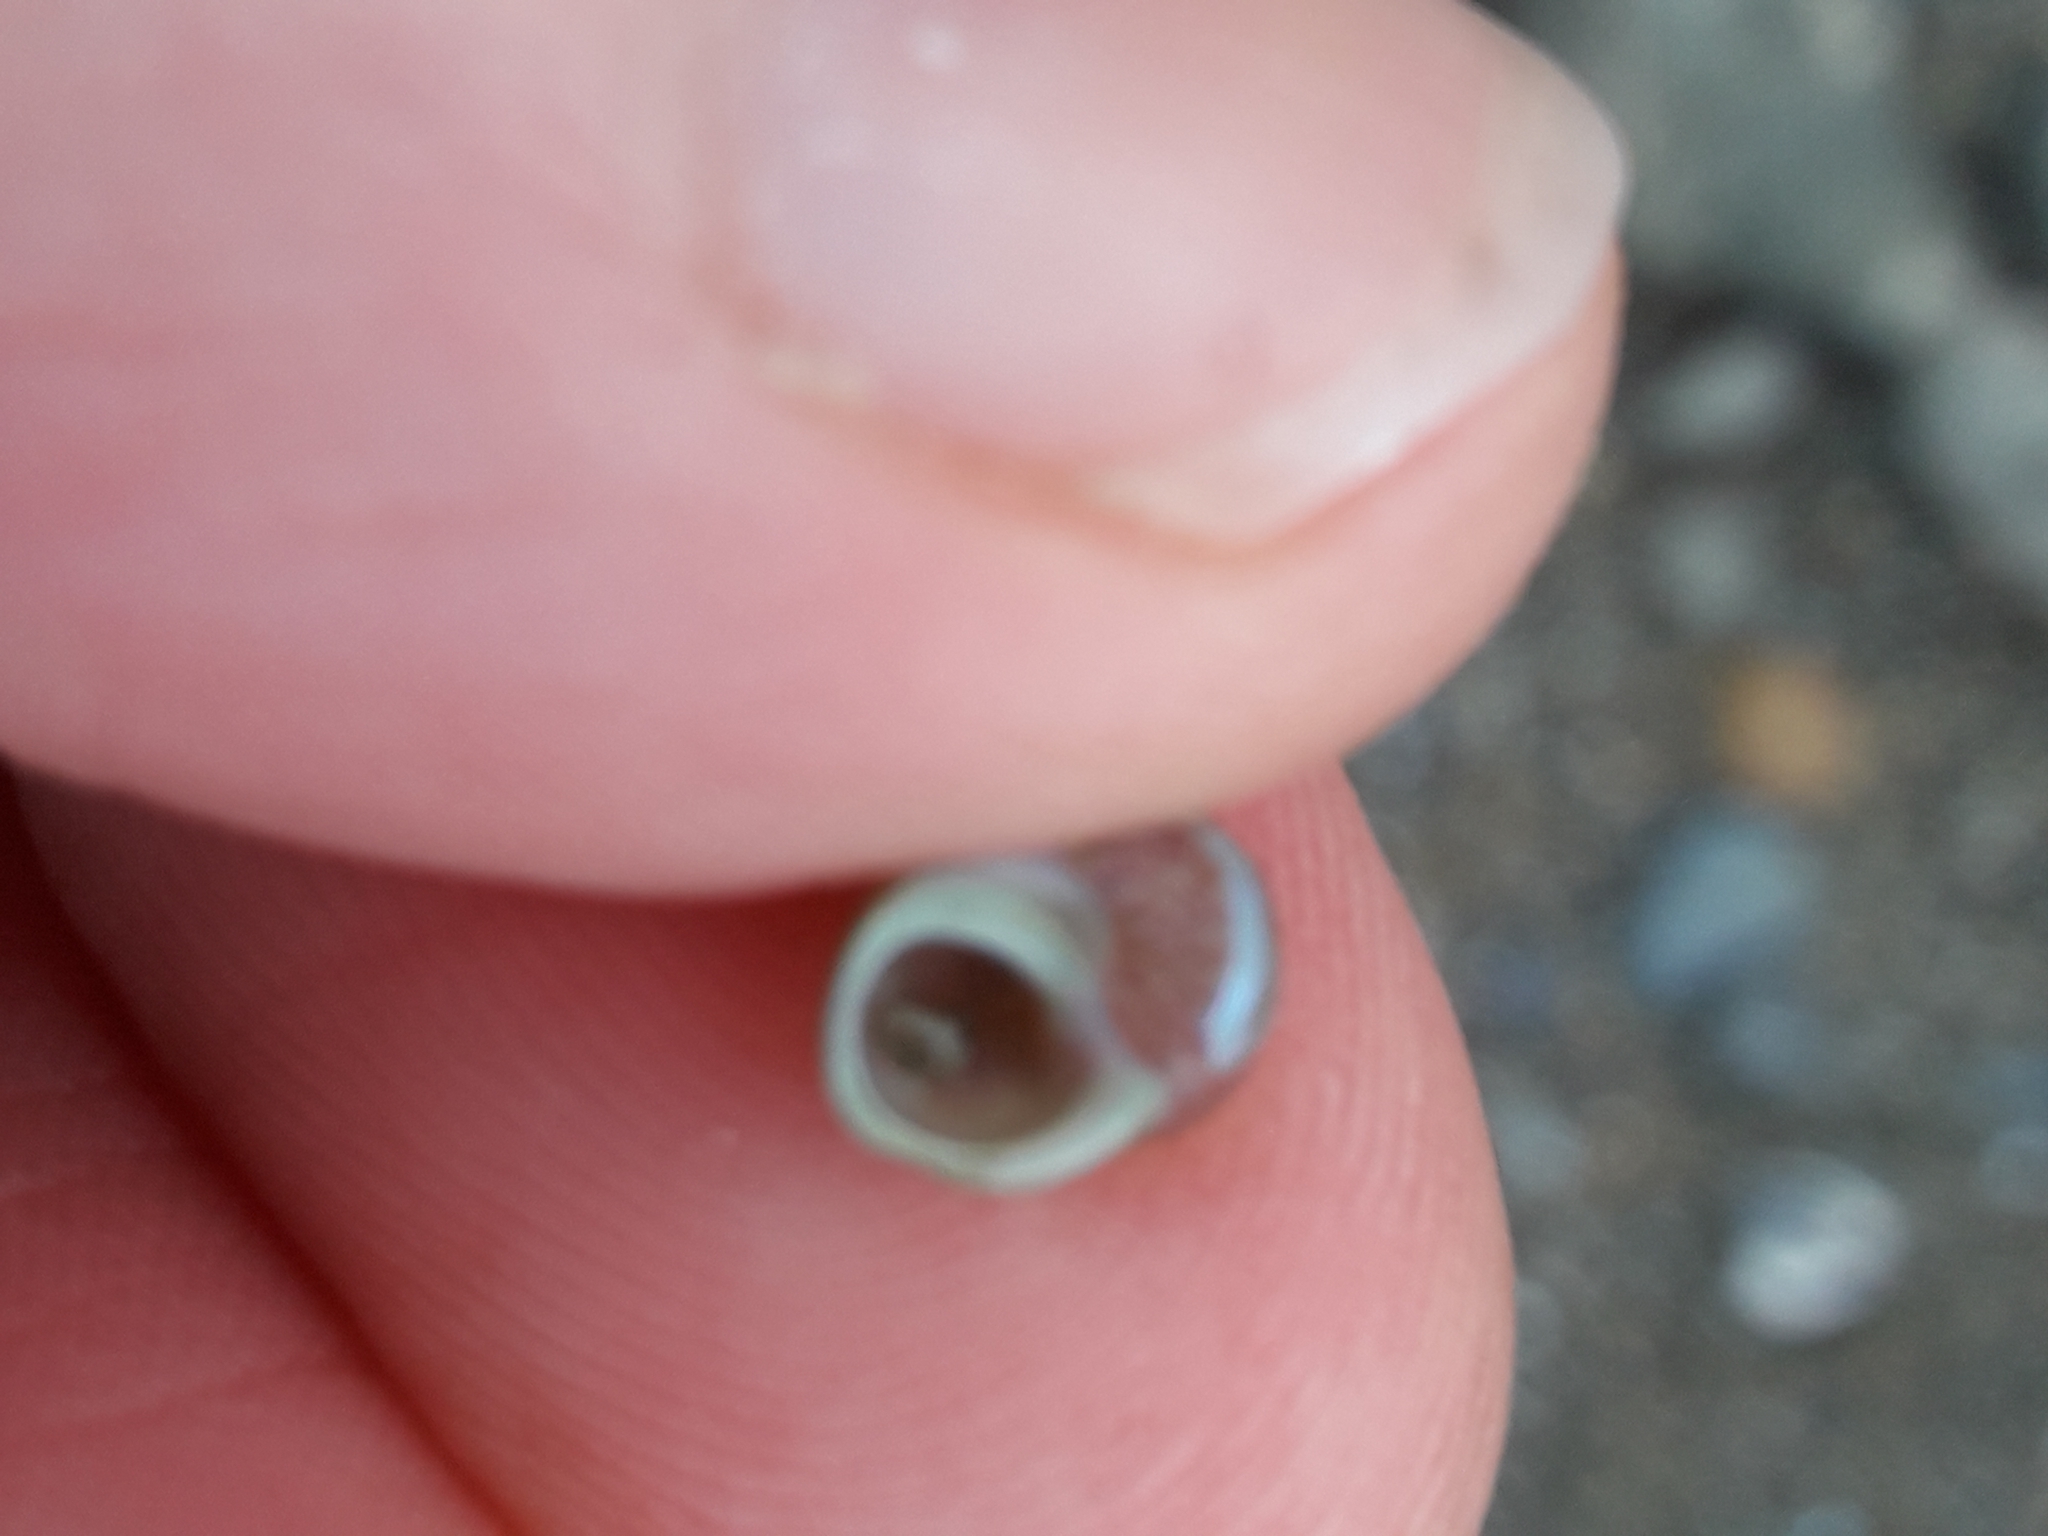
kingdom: Animalia
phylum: Mollusca
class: Gastropoda
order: Trochida
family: Trochidae
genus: Cantharidus
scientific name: Cantharidus dilatatus
